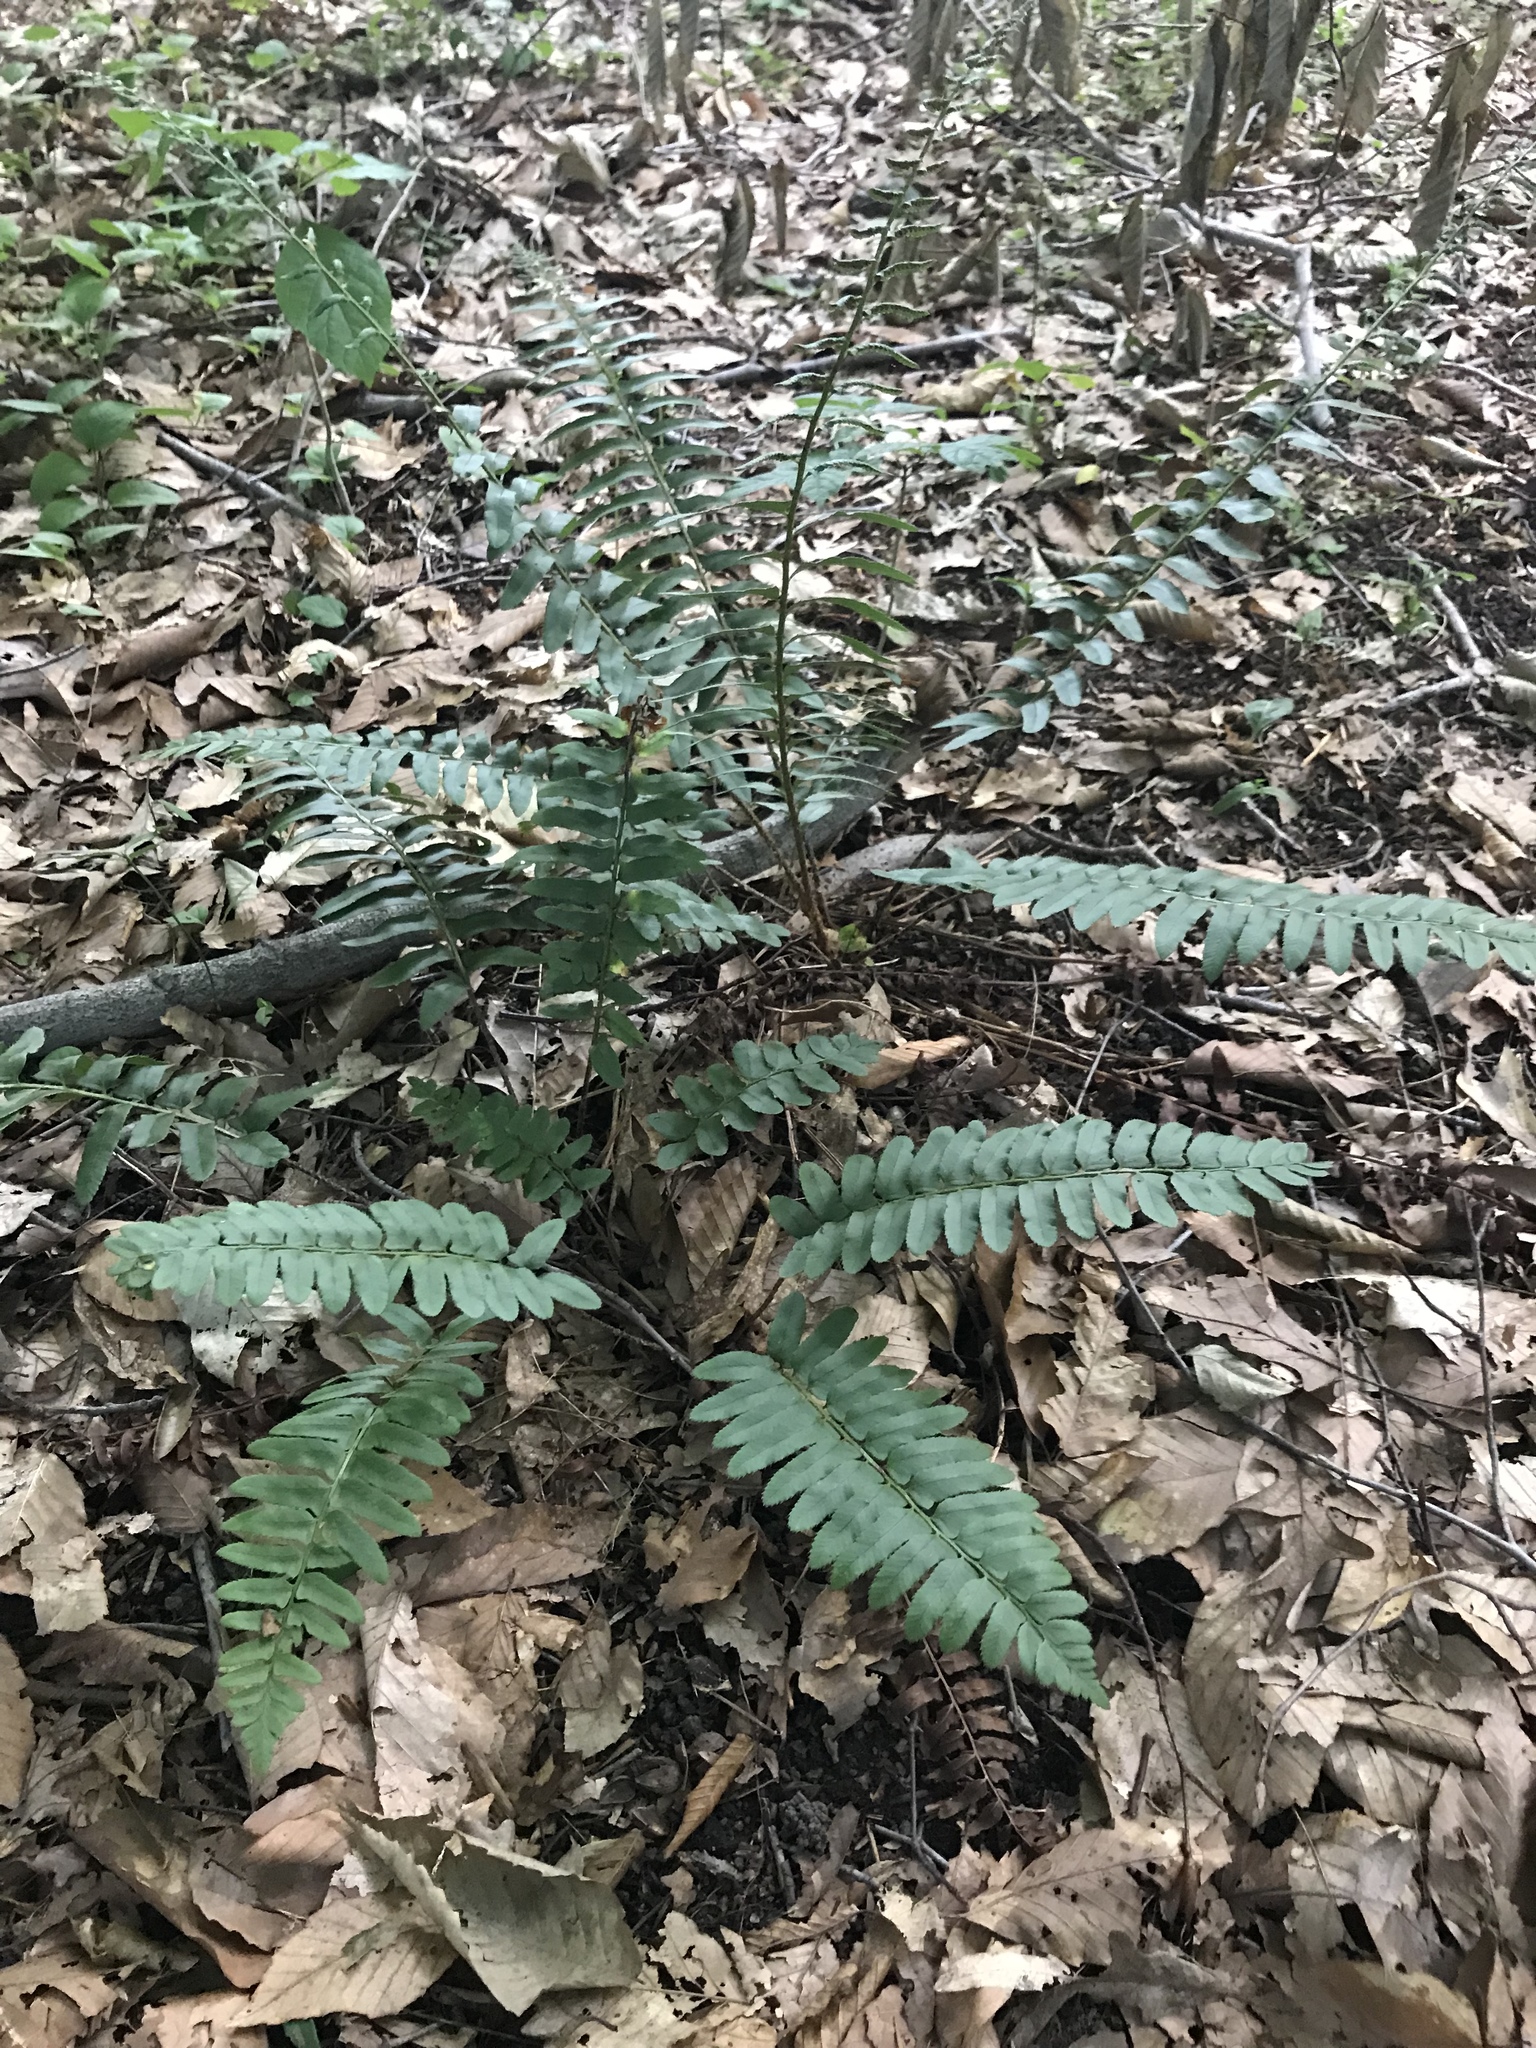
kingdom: Plantae
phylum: Tracheophyta
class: Polypodiopsida
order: Polypodiales
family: Dryopteridaceae
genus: Polystichum
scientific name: Polystichum acrostichoides
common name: Christmas fern
